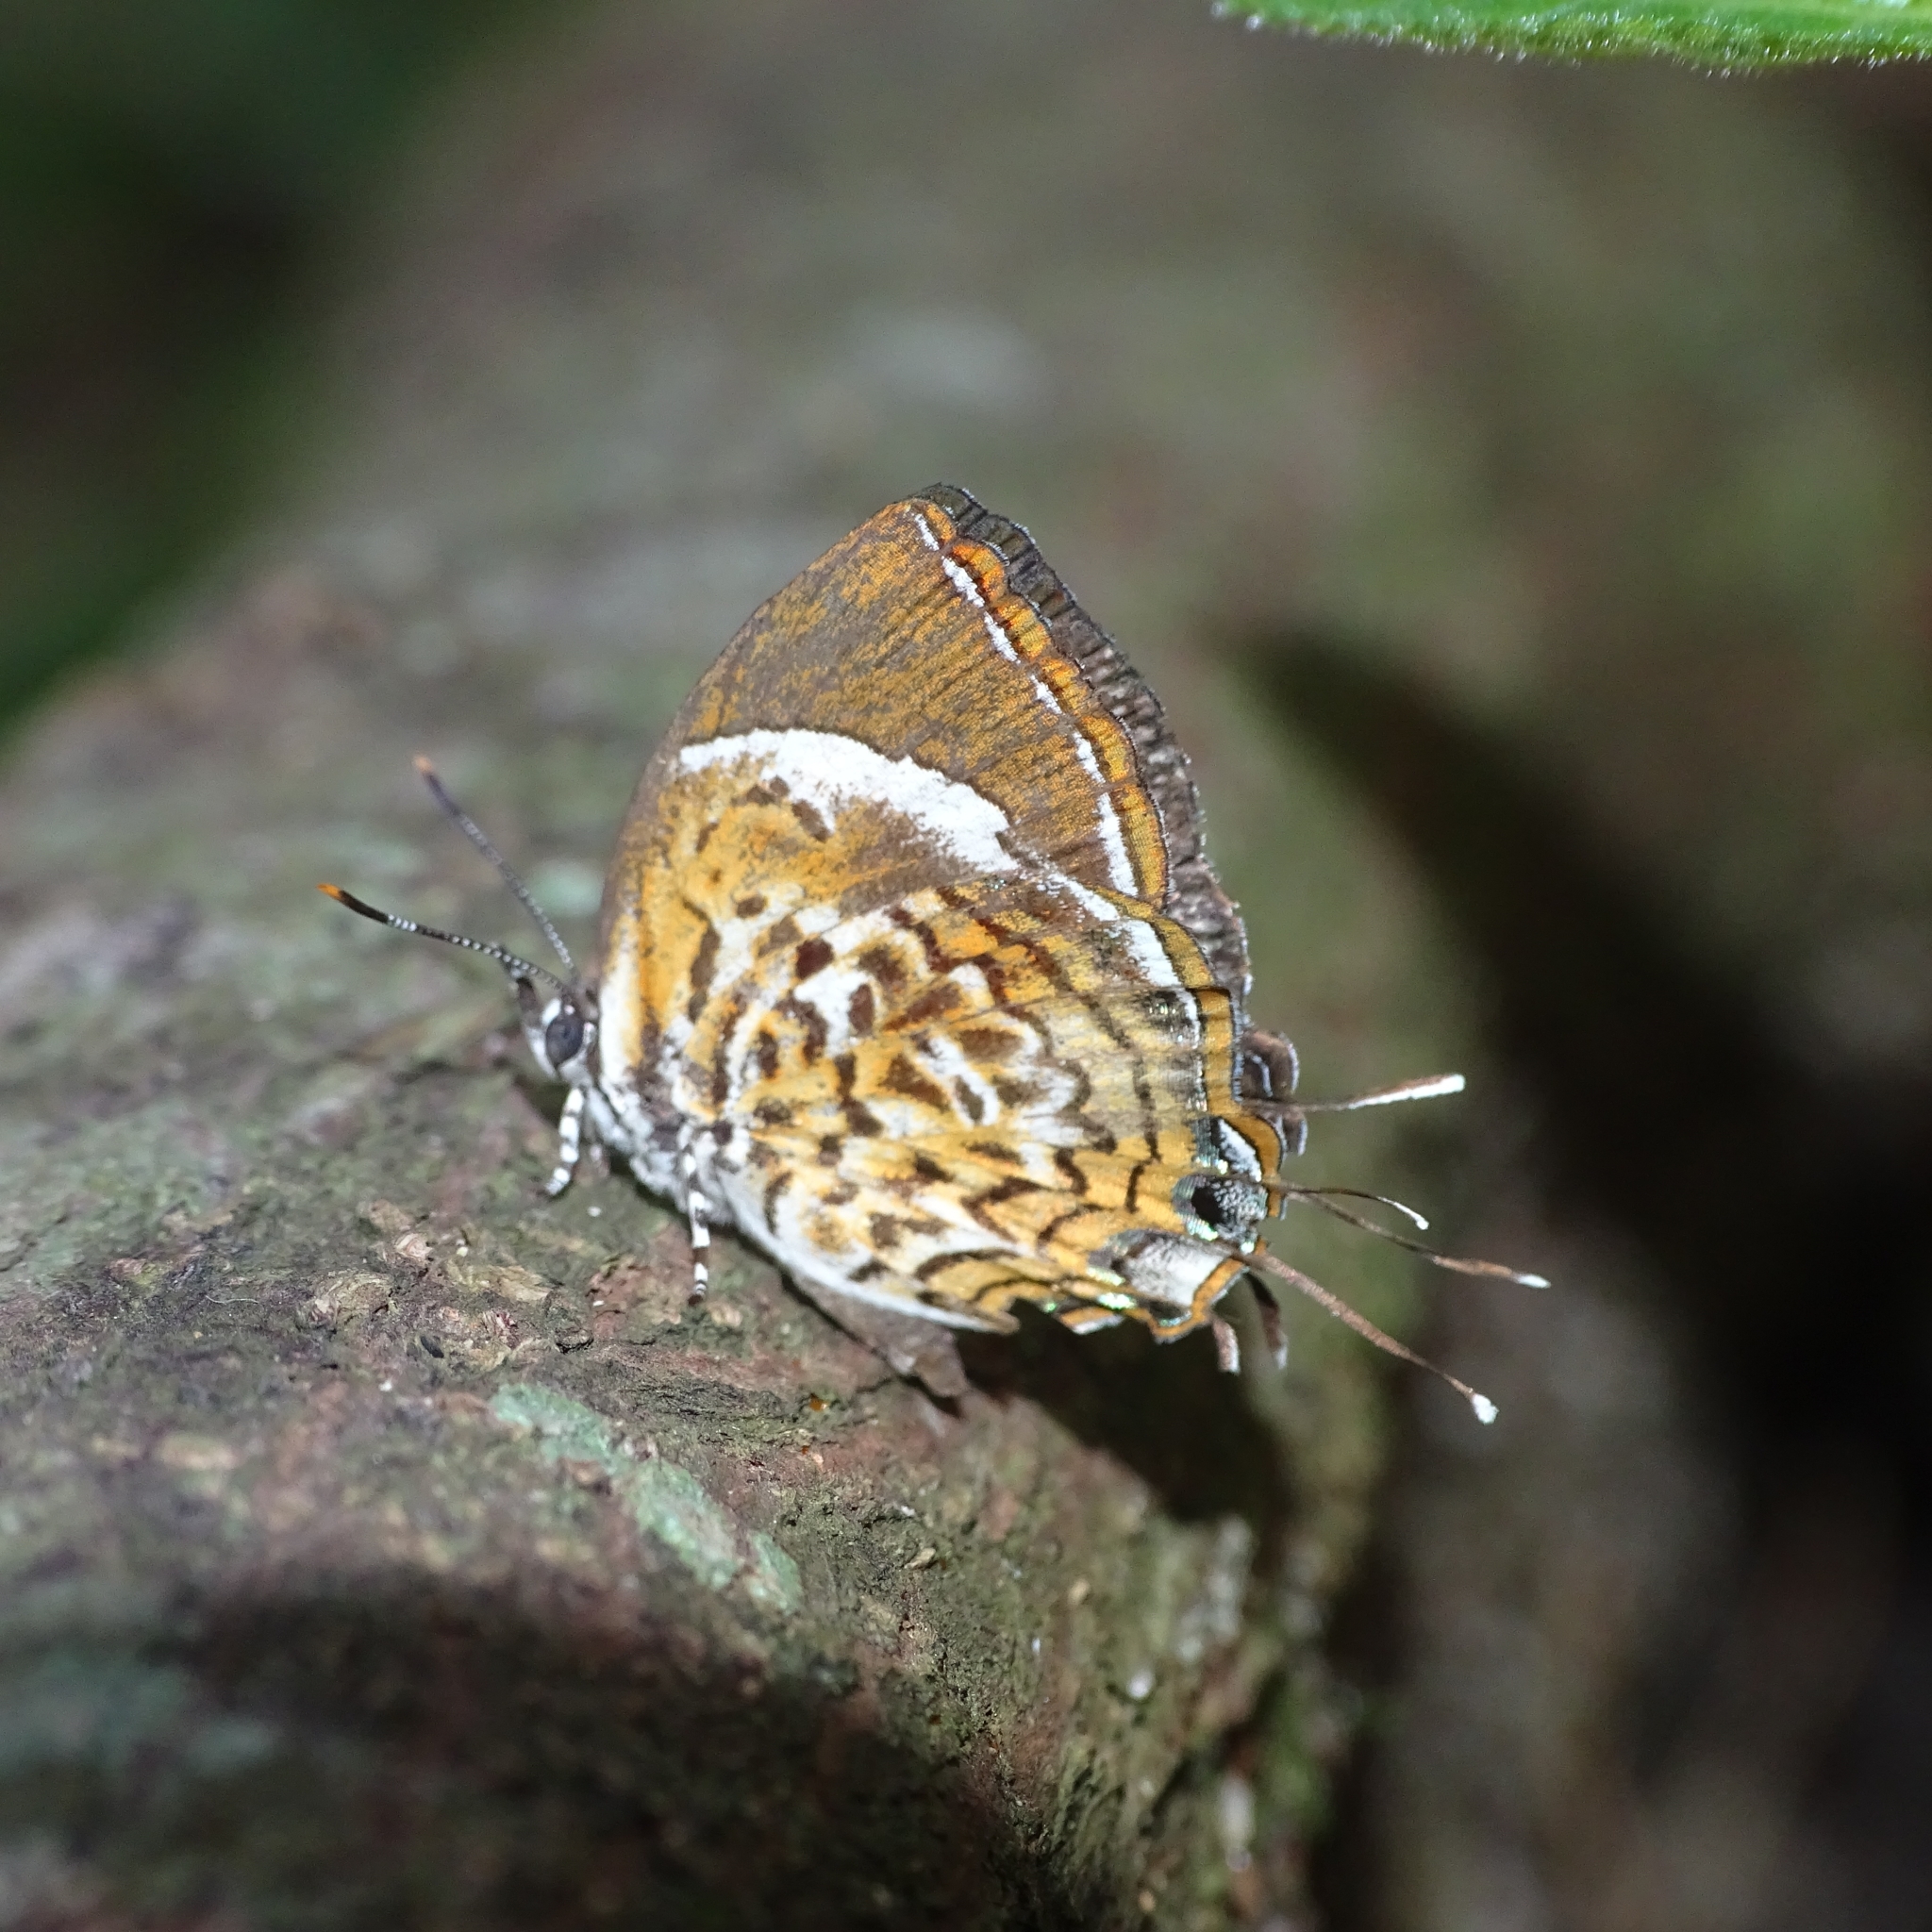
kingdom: Animalia
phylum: Arthropoda
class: Insecta
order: Lepidoptera
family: Lycaenidae
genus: Rathinda
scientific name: Rathinda amor
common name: Monkey puzzle
